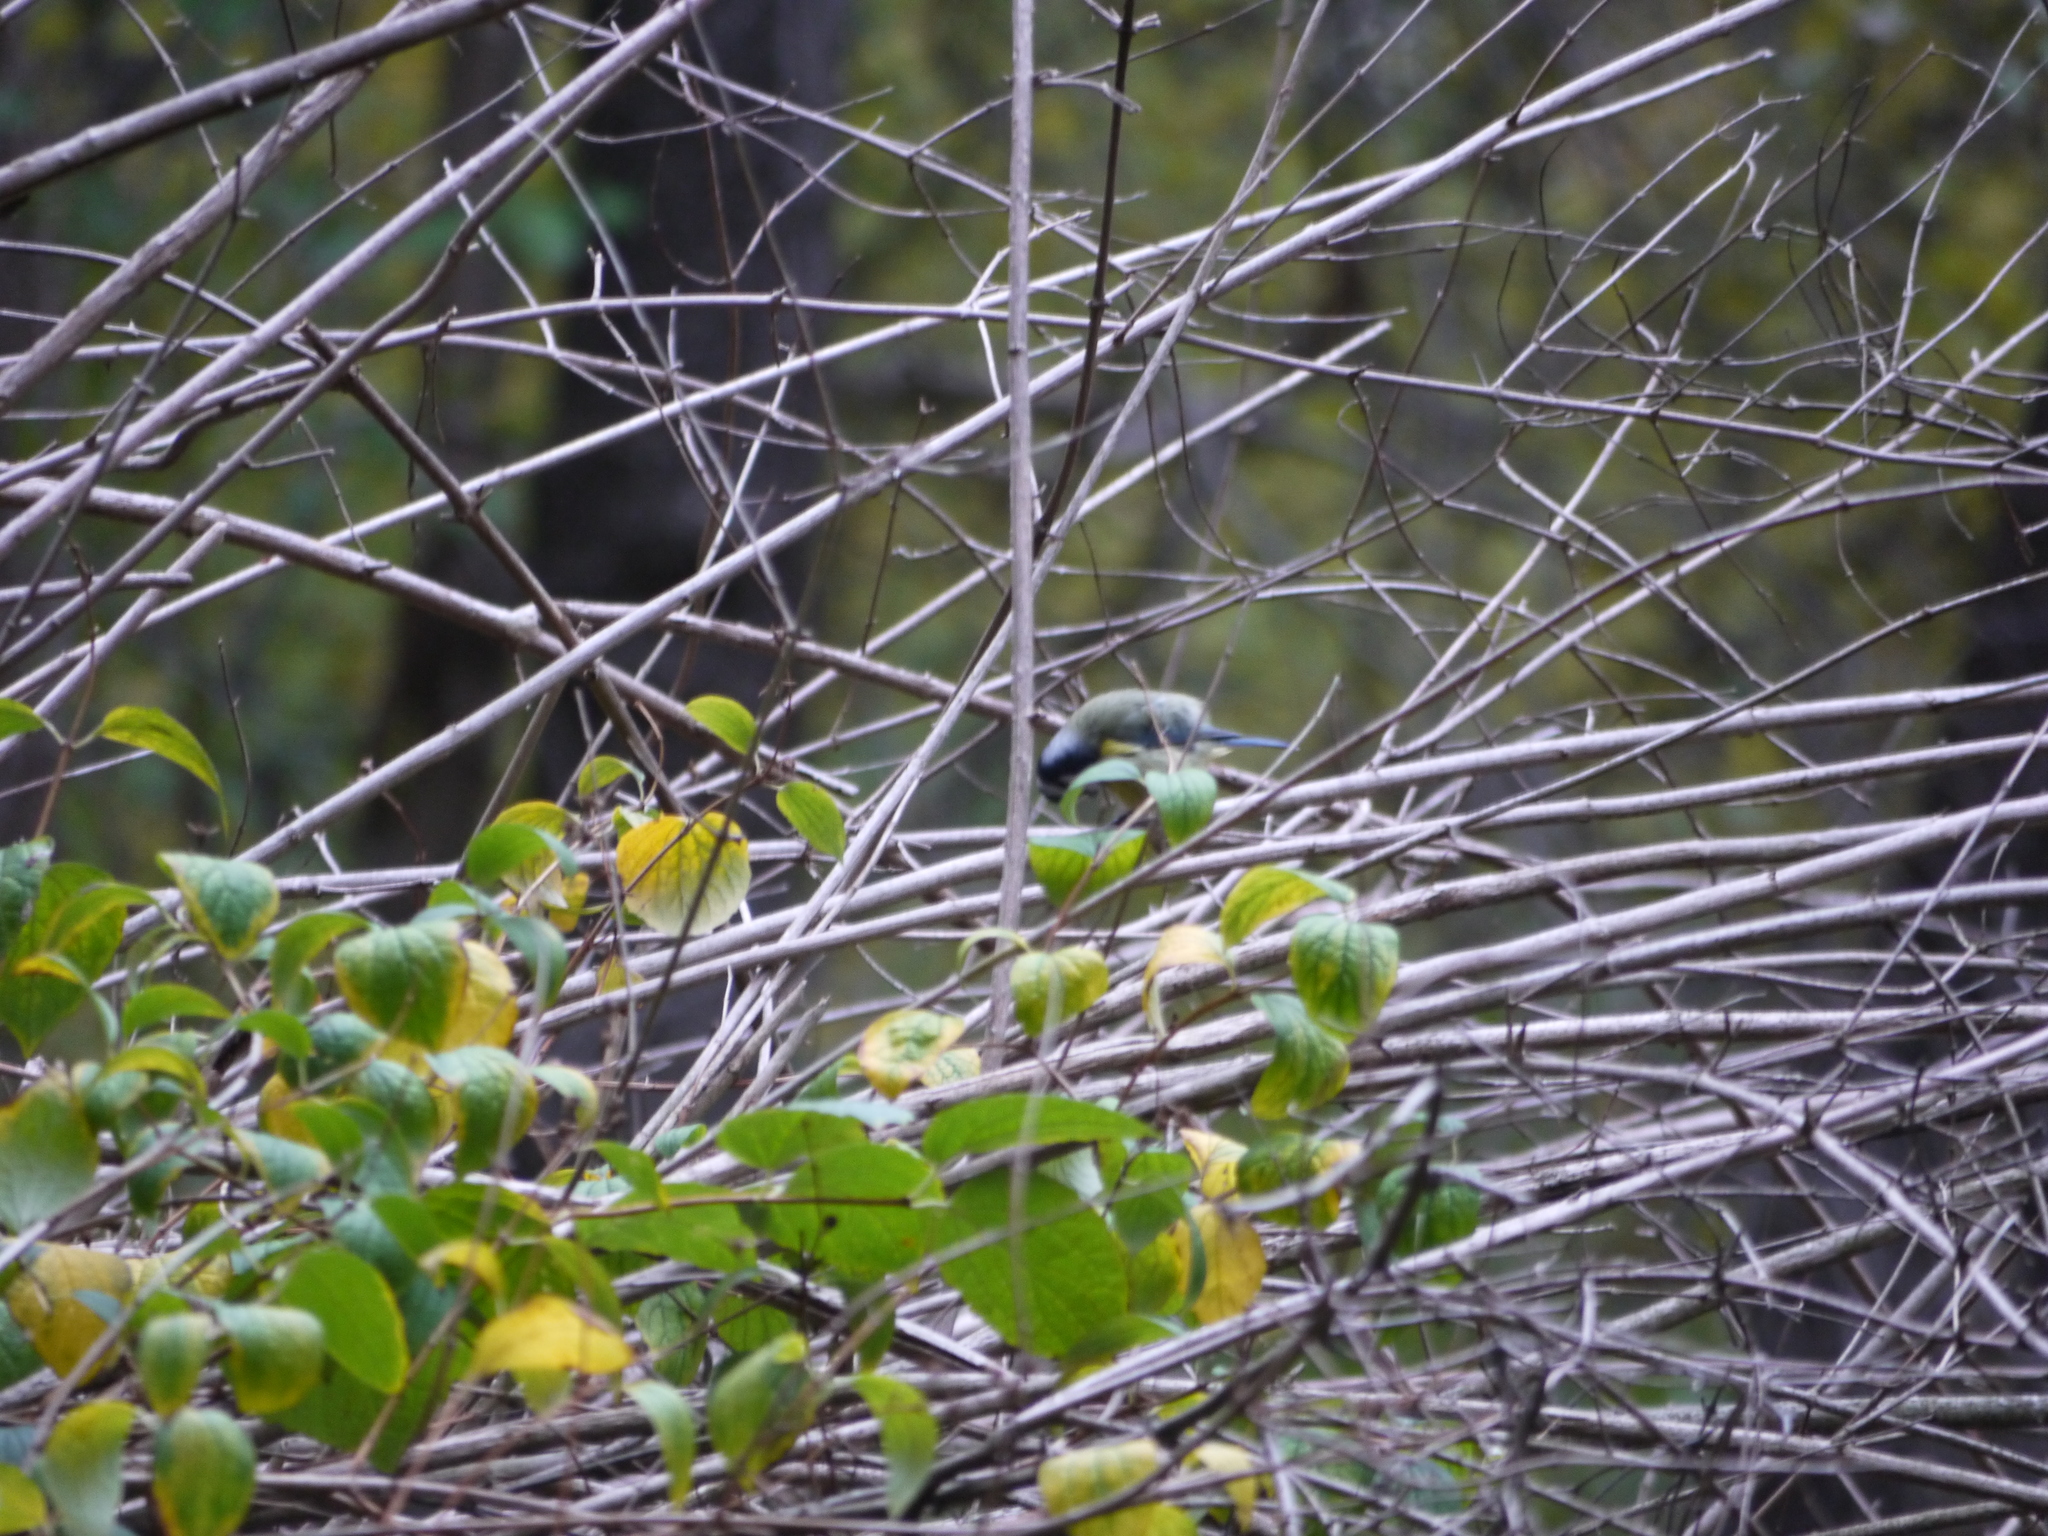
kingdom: Animalia
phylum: Chordata
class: Aves
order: Passeriformes
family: Paridae
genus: Cyanistes
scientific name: Cyanistes caeruleus
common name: Eurasian blue tit
